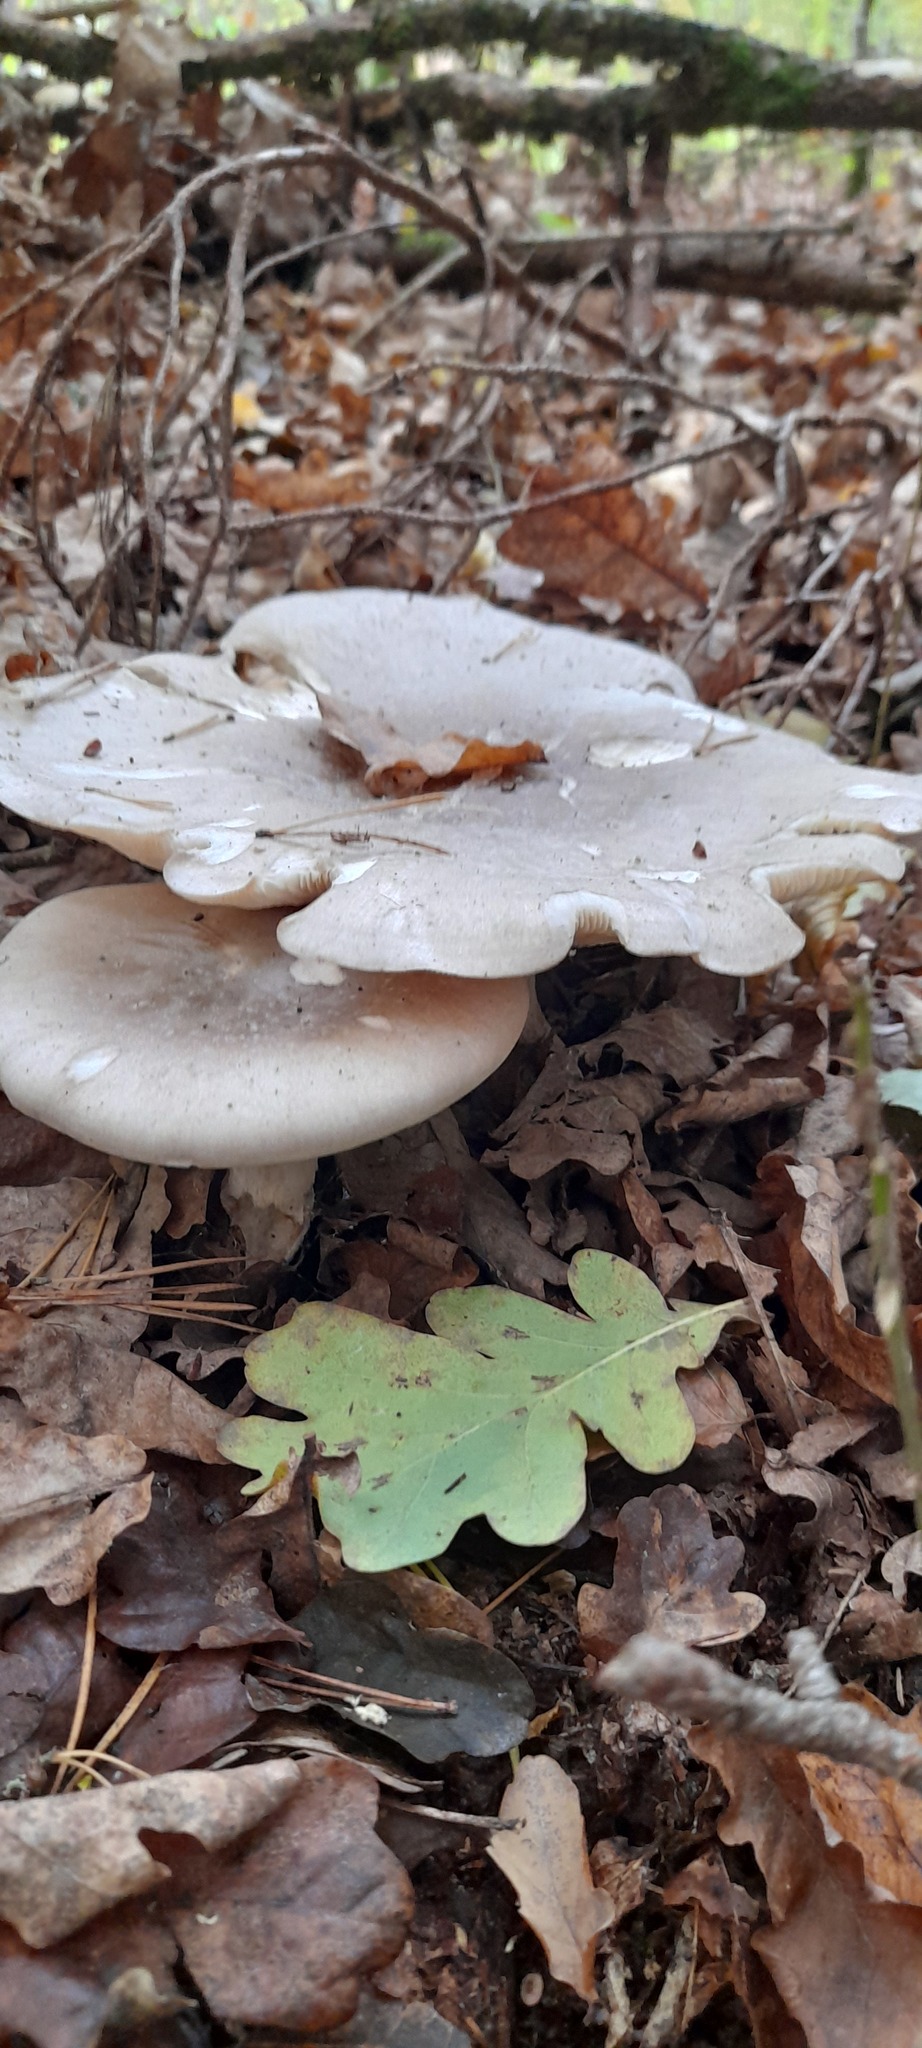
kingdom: Fungi
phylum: Basidiomycota
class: Agaricomycetes
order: Agaricales
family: Tricholomataceae
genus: Clitocybe
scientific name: Clitocybe nebularis
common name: Clouded agaric
